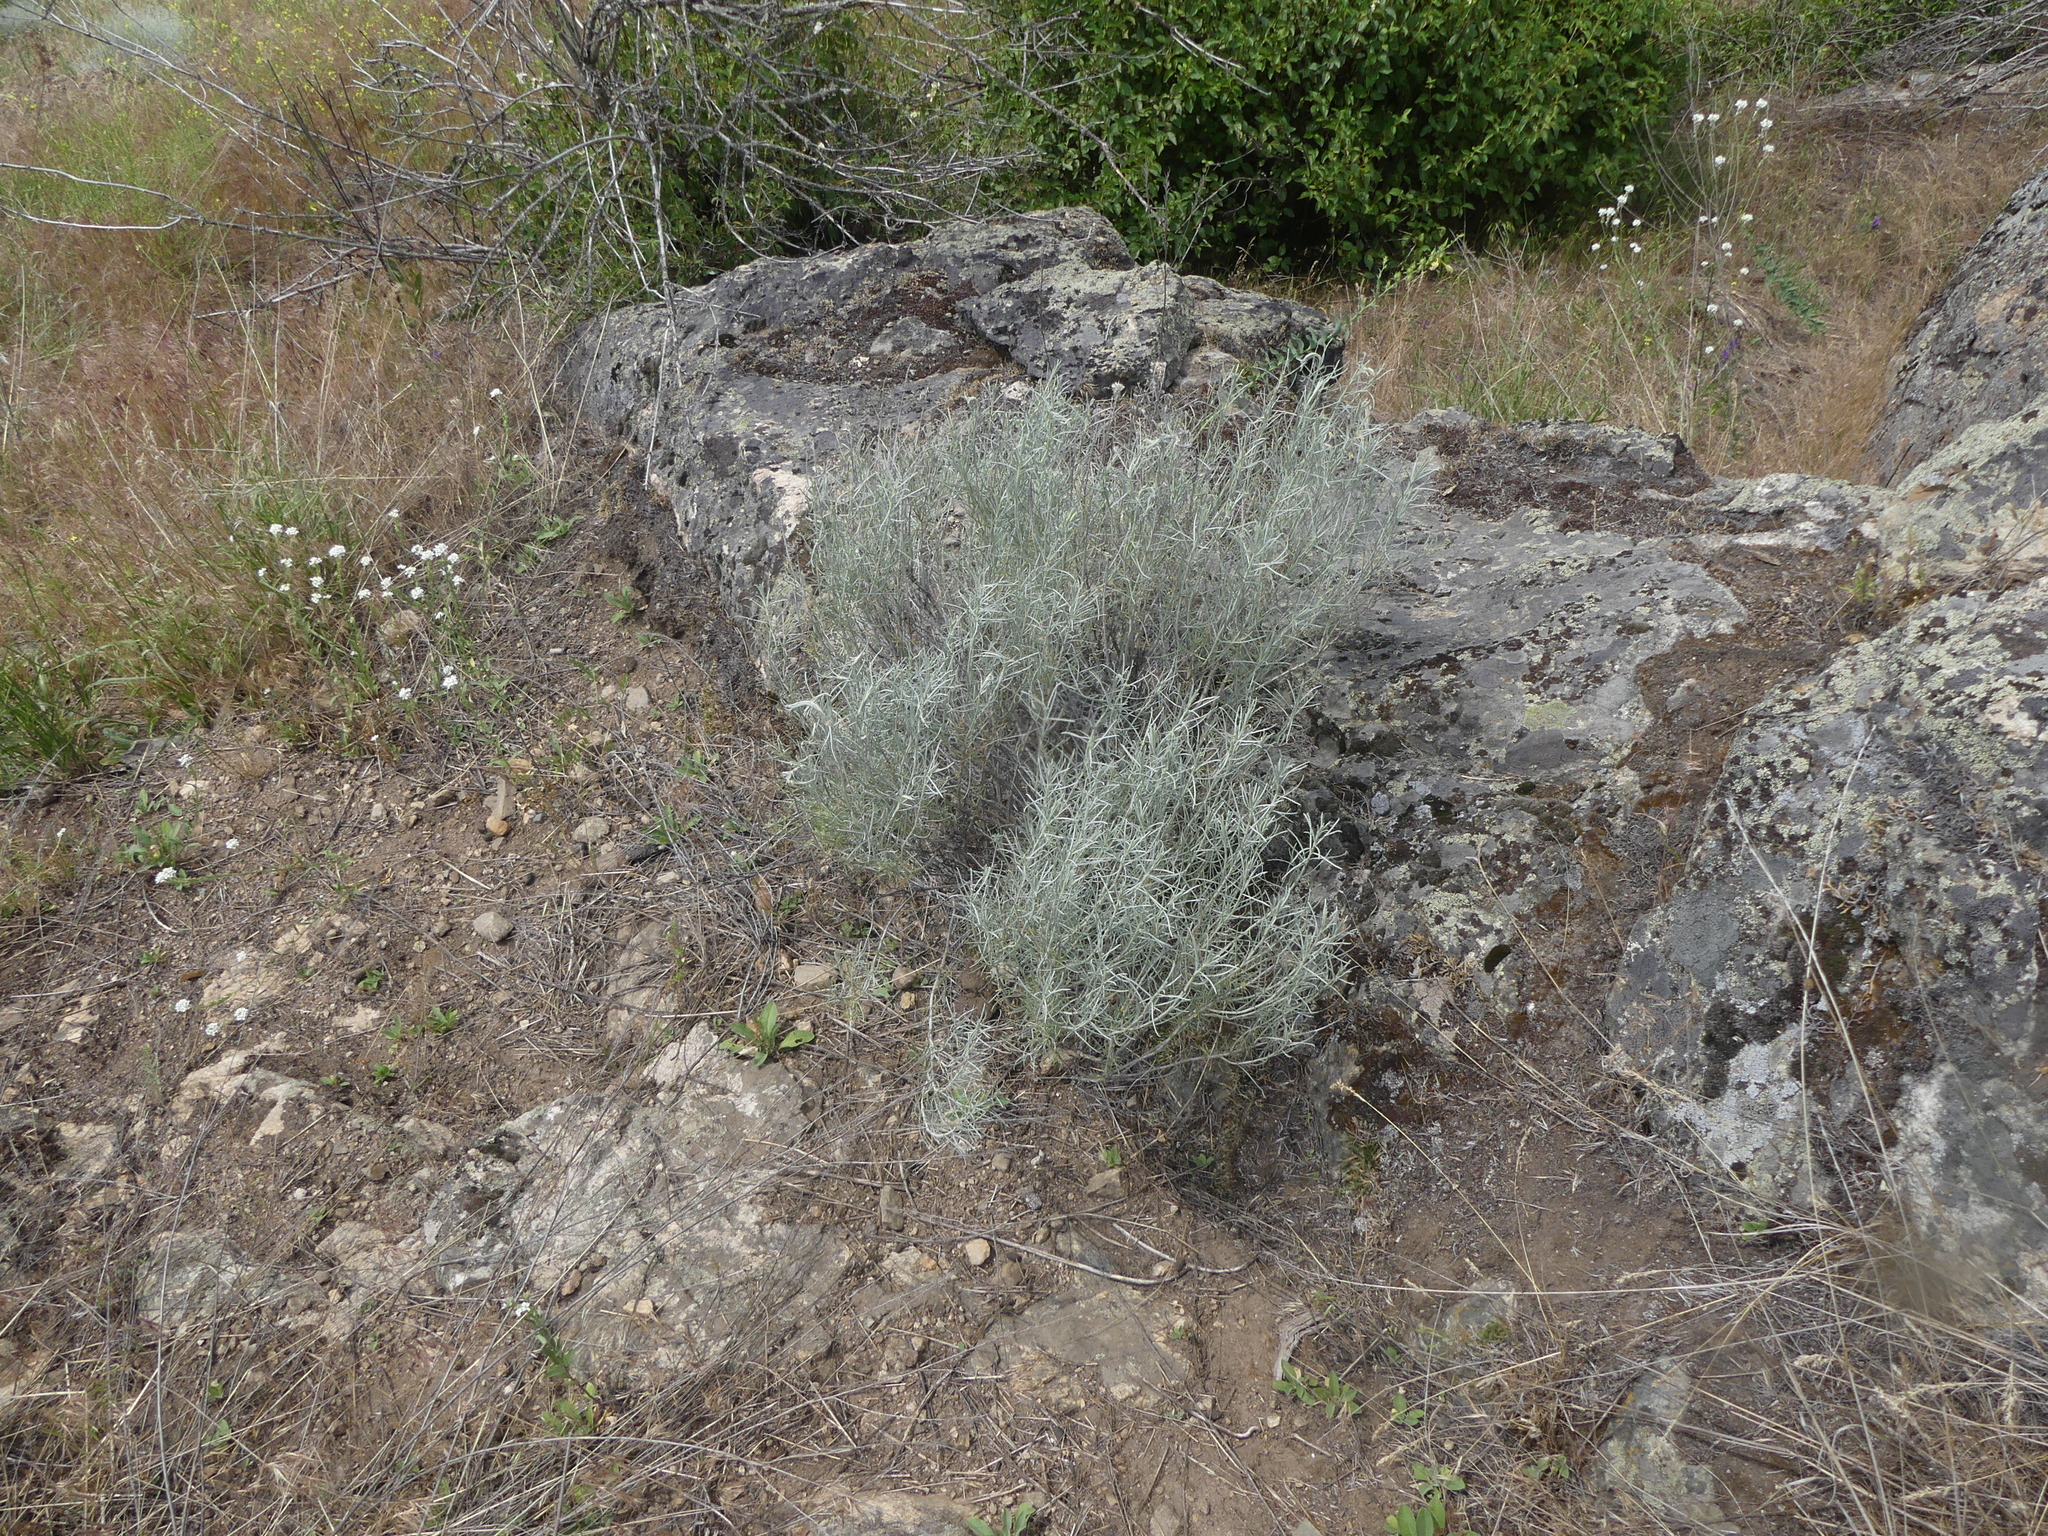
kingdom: Plantae
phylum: Tracheophyta
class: Magnoliopsida
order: Asterales
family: Asteraceae
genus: Ericameria
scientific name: Ericameria nauseosa
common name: Rubber rabbitbrush
